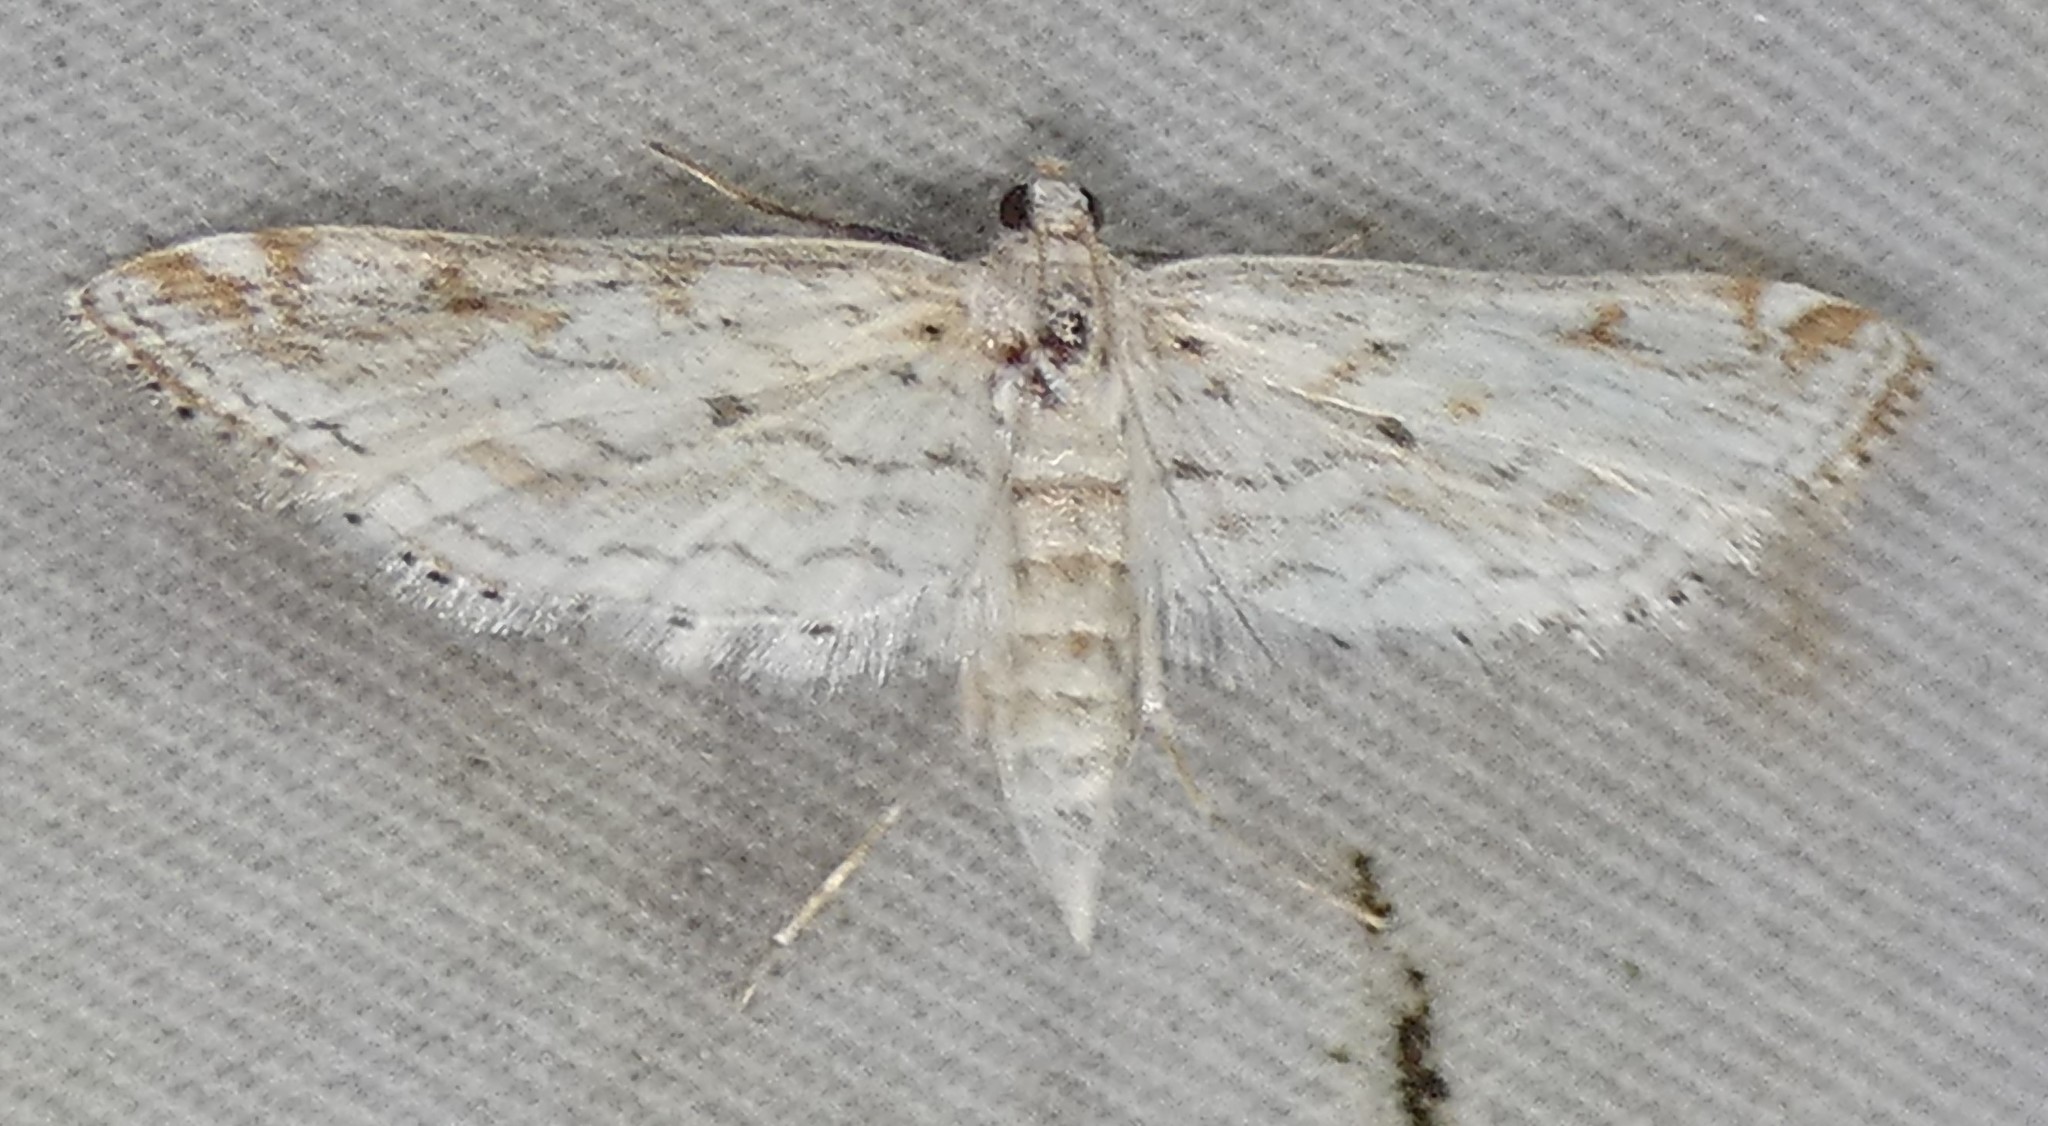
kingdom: Animalia
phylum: Arthropoda
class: Insecta
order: Lepidoptera
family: Crambidae
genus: Parapoynx
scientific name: Parapoynx allionealis
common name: Bladderwort casemaker
